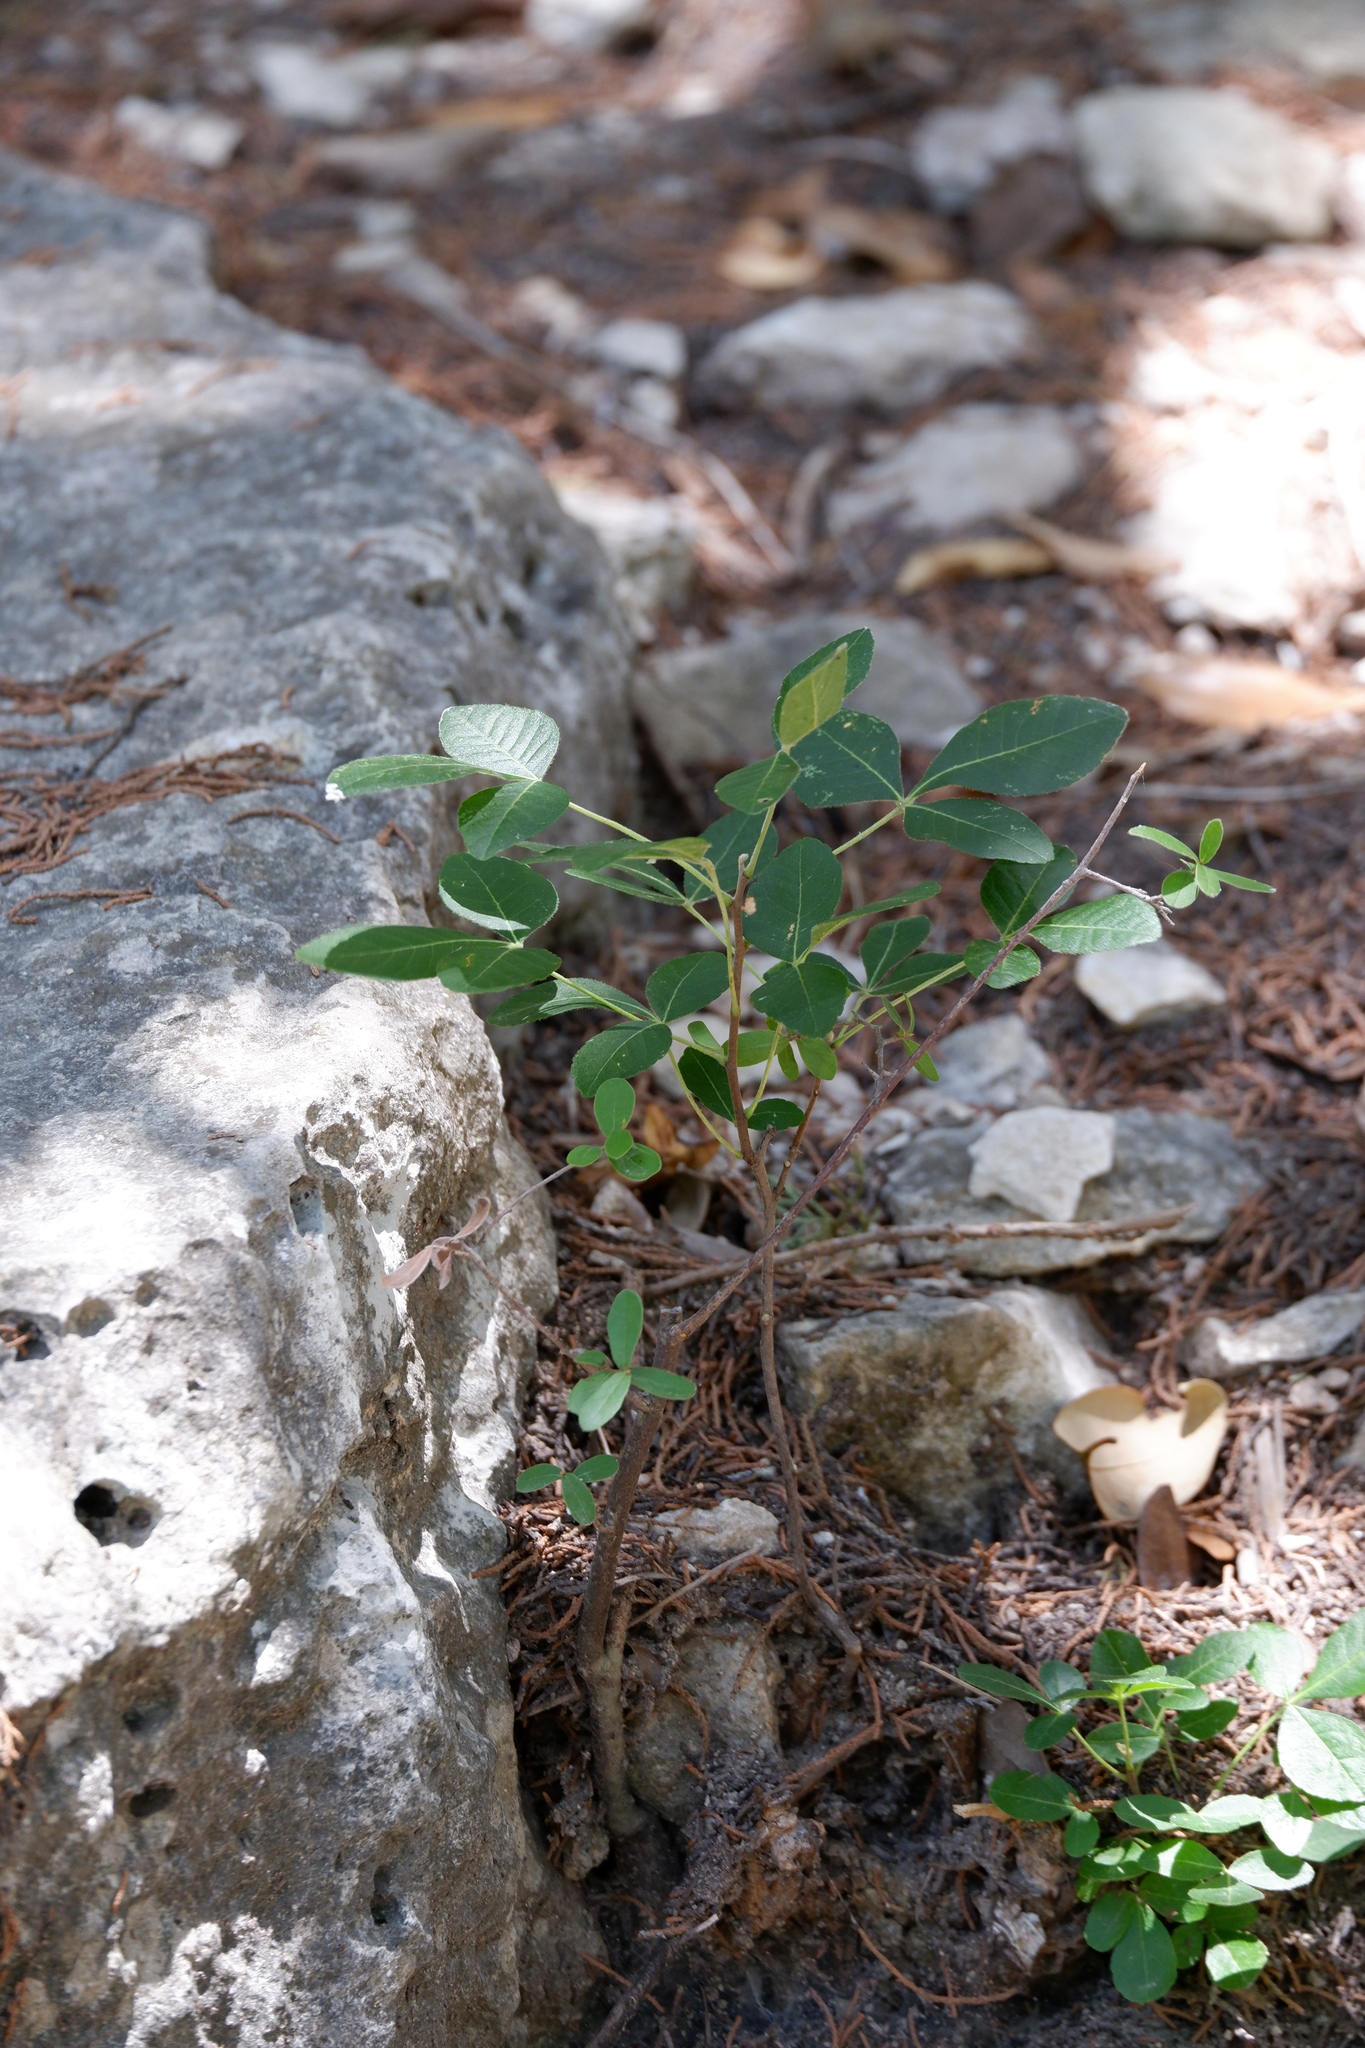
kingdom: Plantae
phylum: Tracheophyta
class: Magnoliopsida
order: Sapindales
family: Rutaceae
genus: Ptelea
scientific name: Ptelea trifoliata
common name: Common hop-tree
